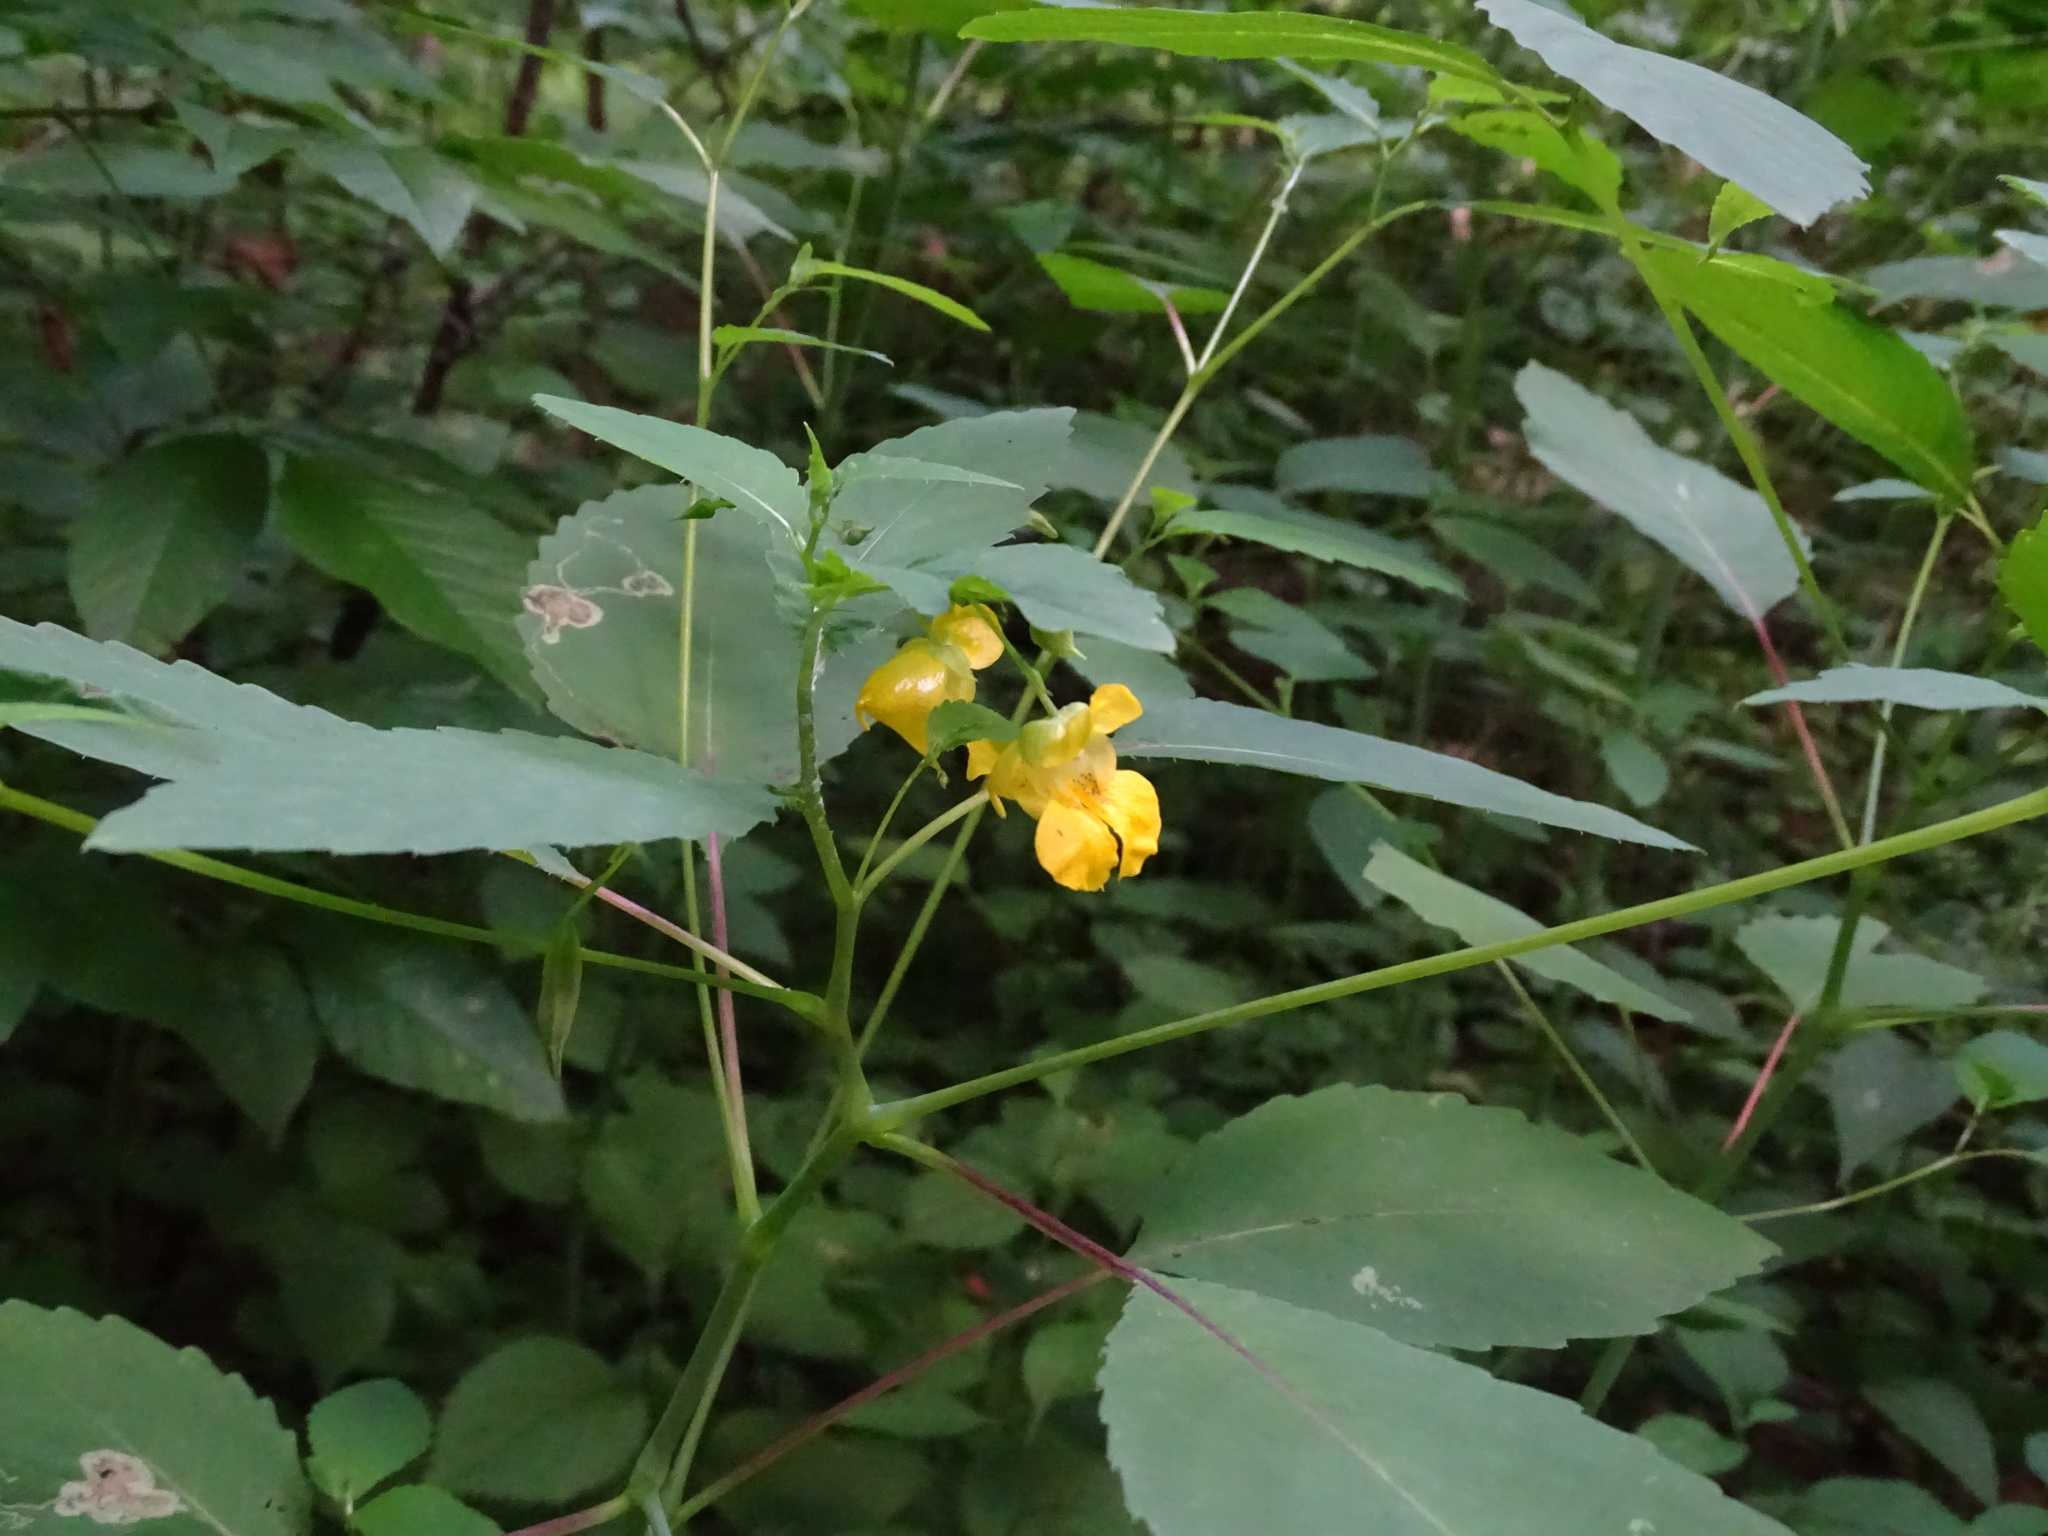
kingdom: Plantae
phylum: Tracheophyta
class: Magnoliopsida
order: Ericales
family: Balsaminaceae
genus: Impatiens
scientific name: Impatiens pallida
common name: Pale snapweed
